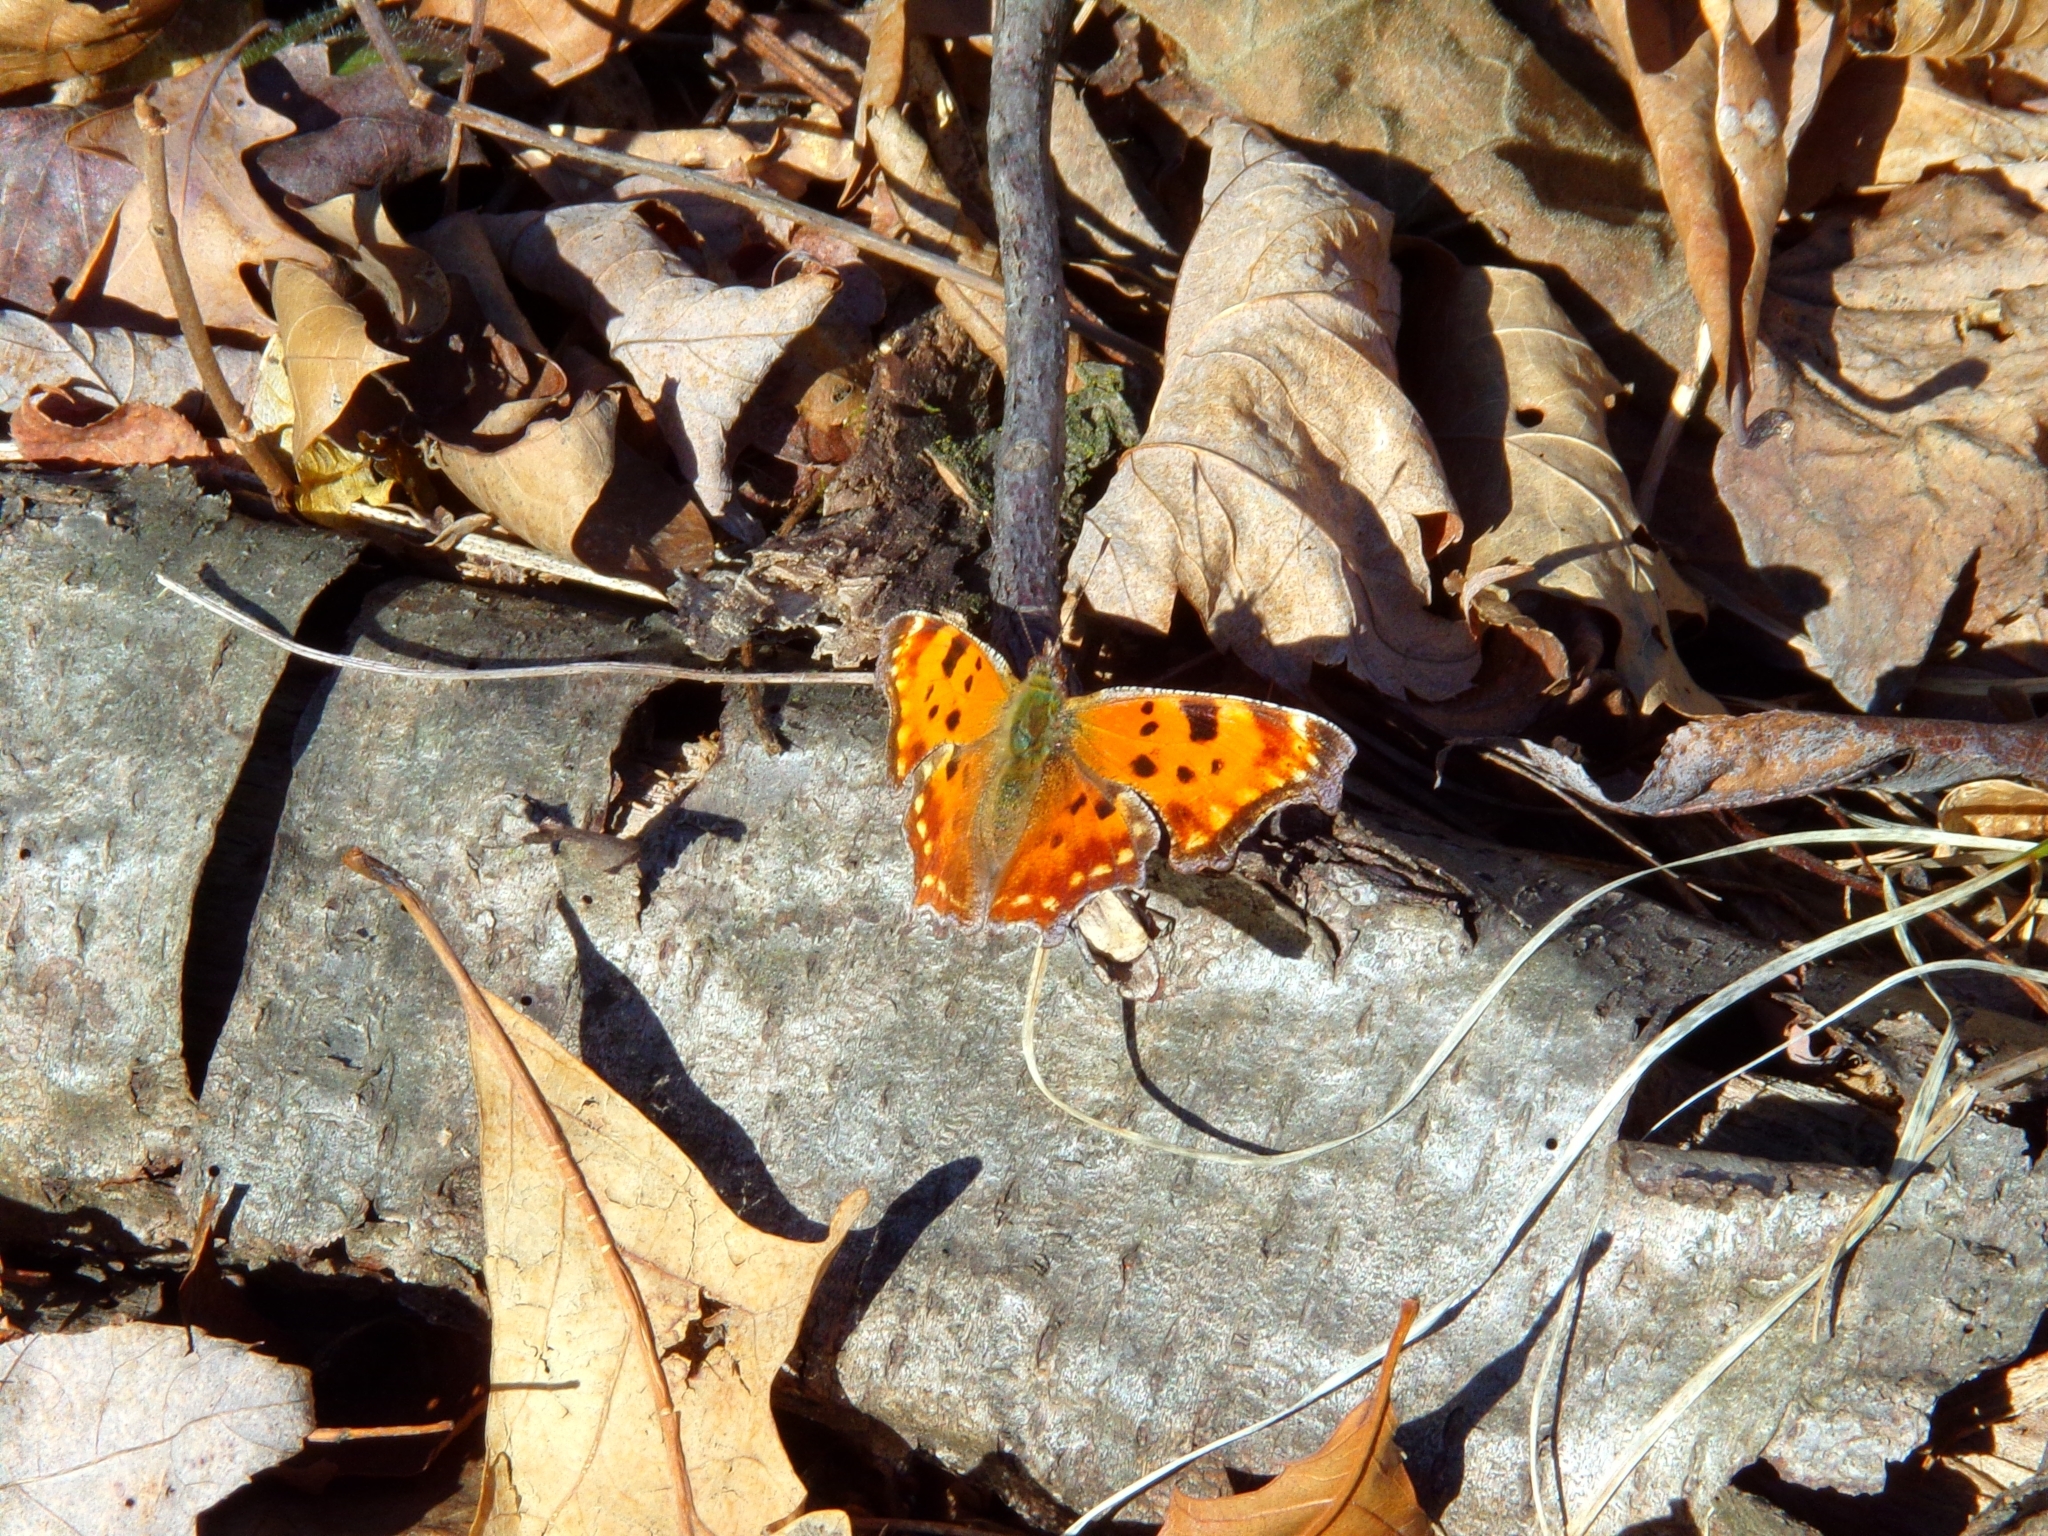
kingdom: Animalia
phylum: Arthropoda
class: Insecta
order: Lepidoptera
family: Nymphalidae
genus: Polygonia
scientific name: Polygonia comma
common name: Eastern comma
